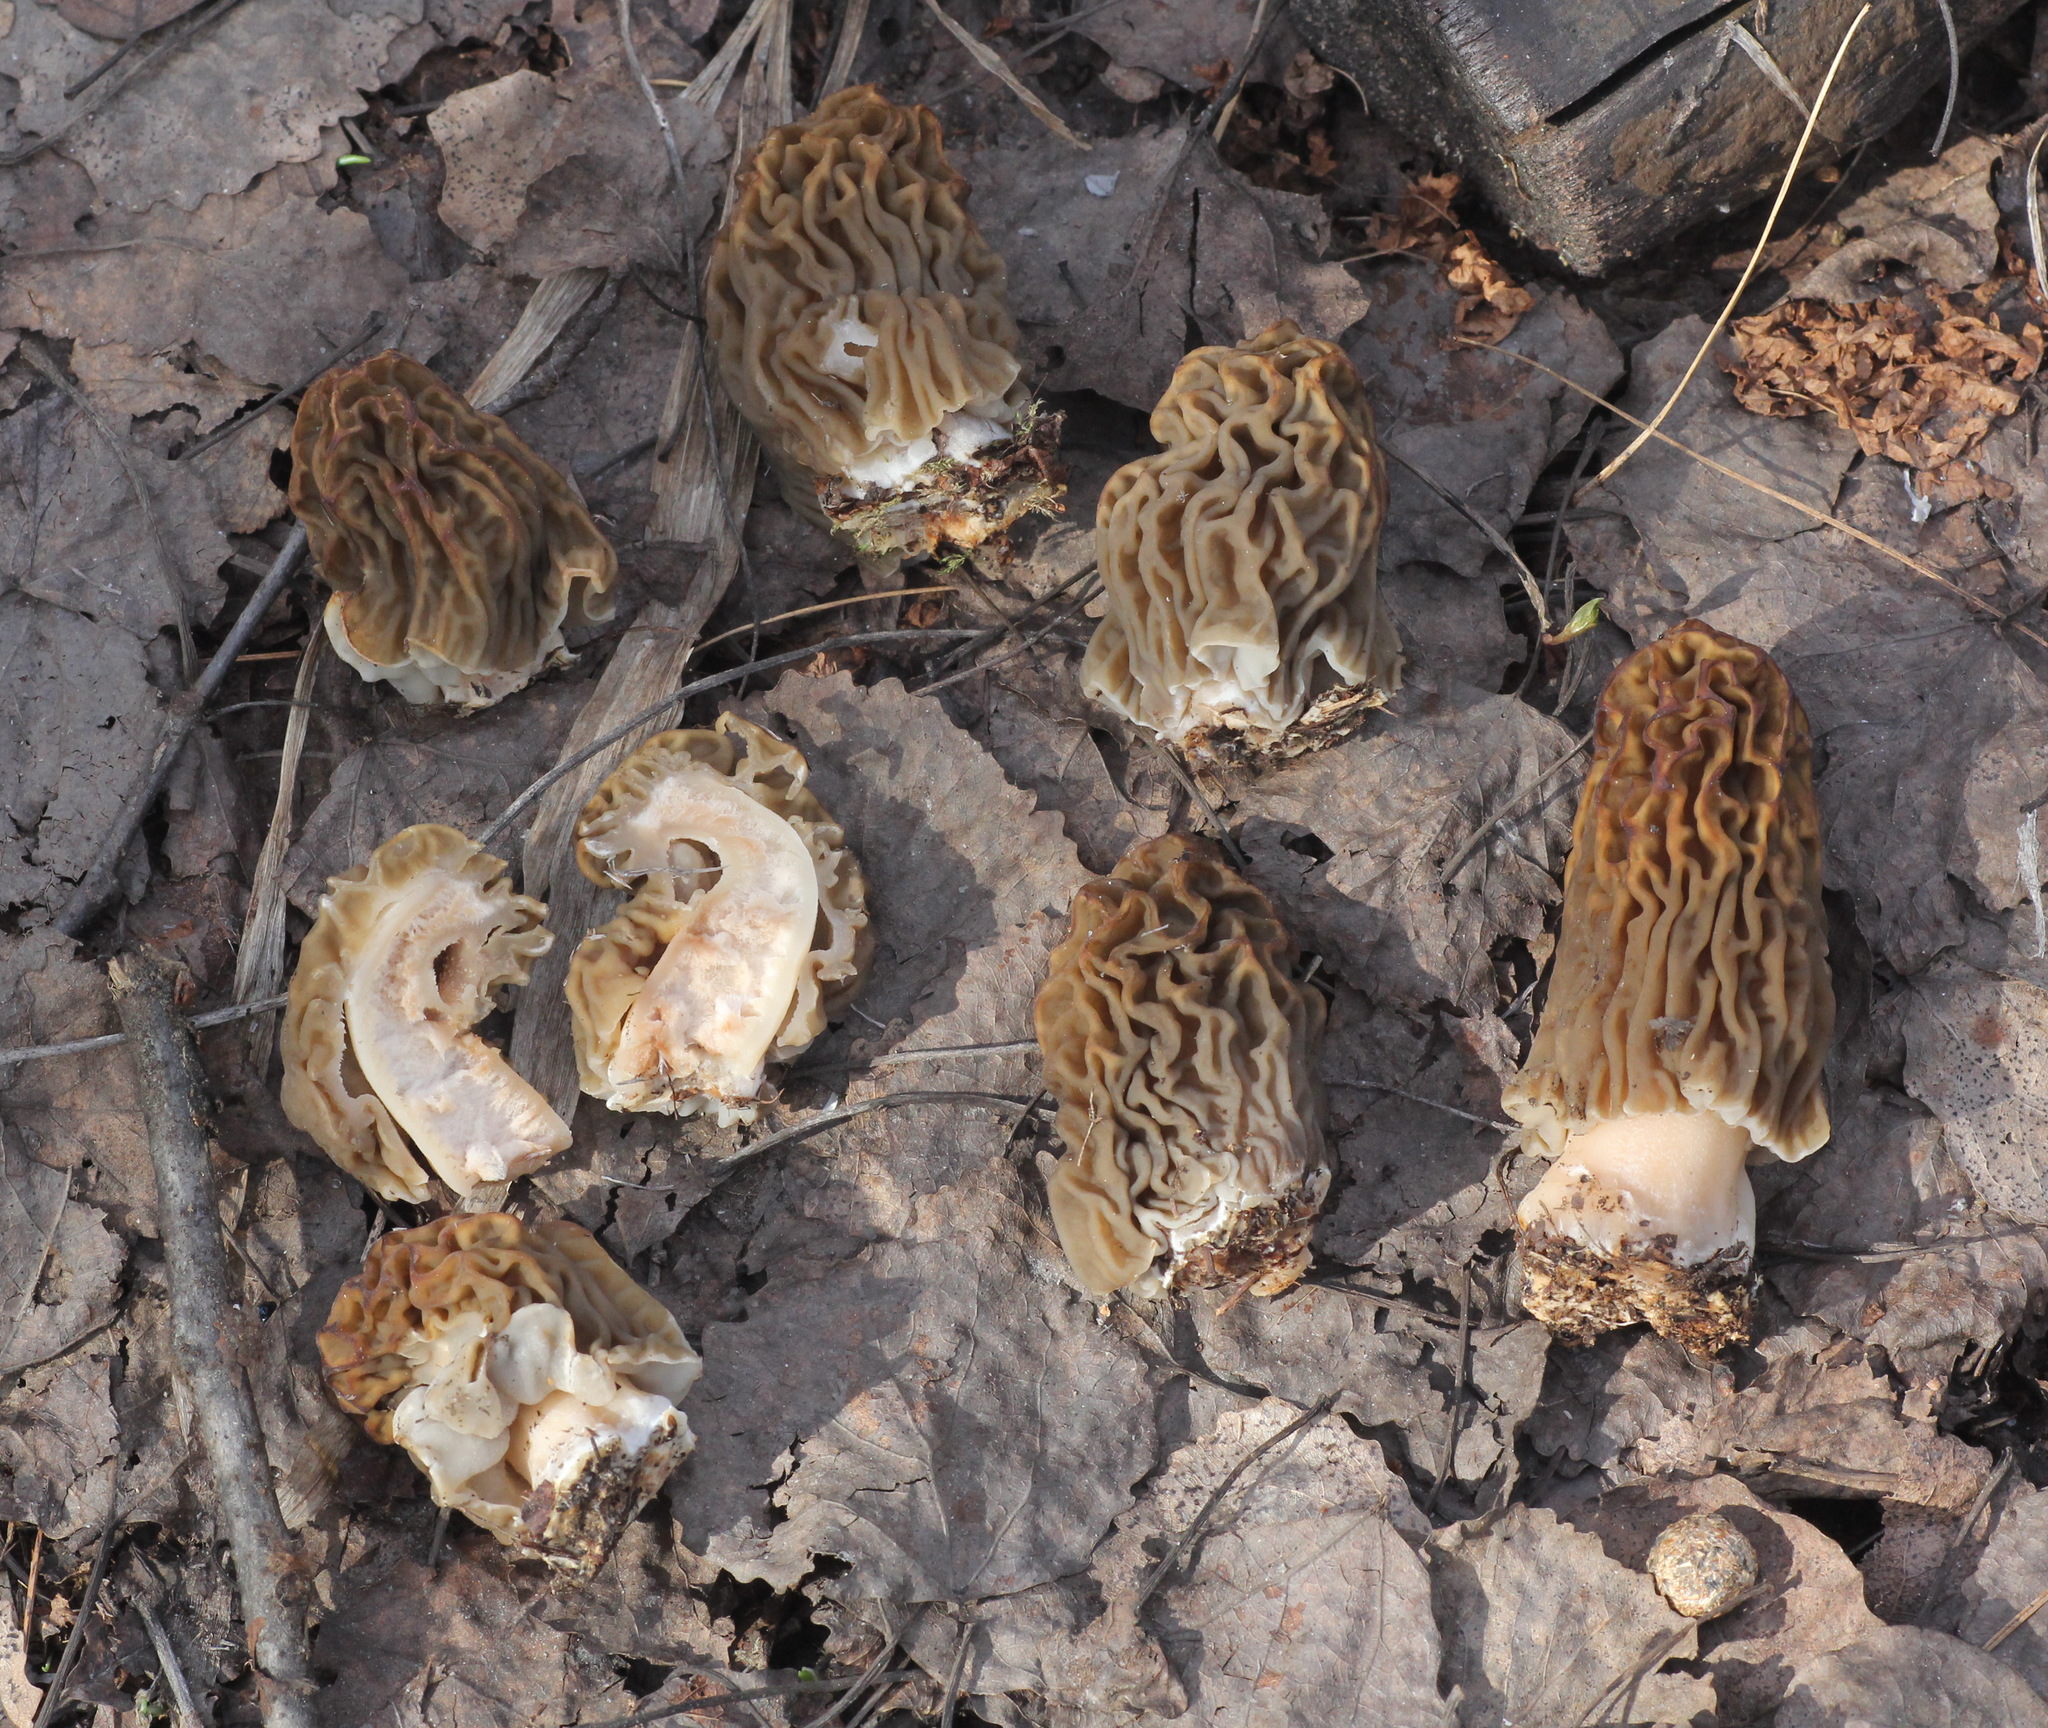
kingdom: Fungi
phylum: Ascomycota
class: Pezizomycetes
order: Pezizales
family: Morchellaceae
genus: Verpa
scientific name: Verpa bohemica
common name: Wrinkled thimble morel
